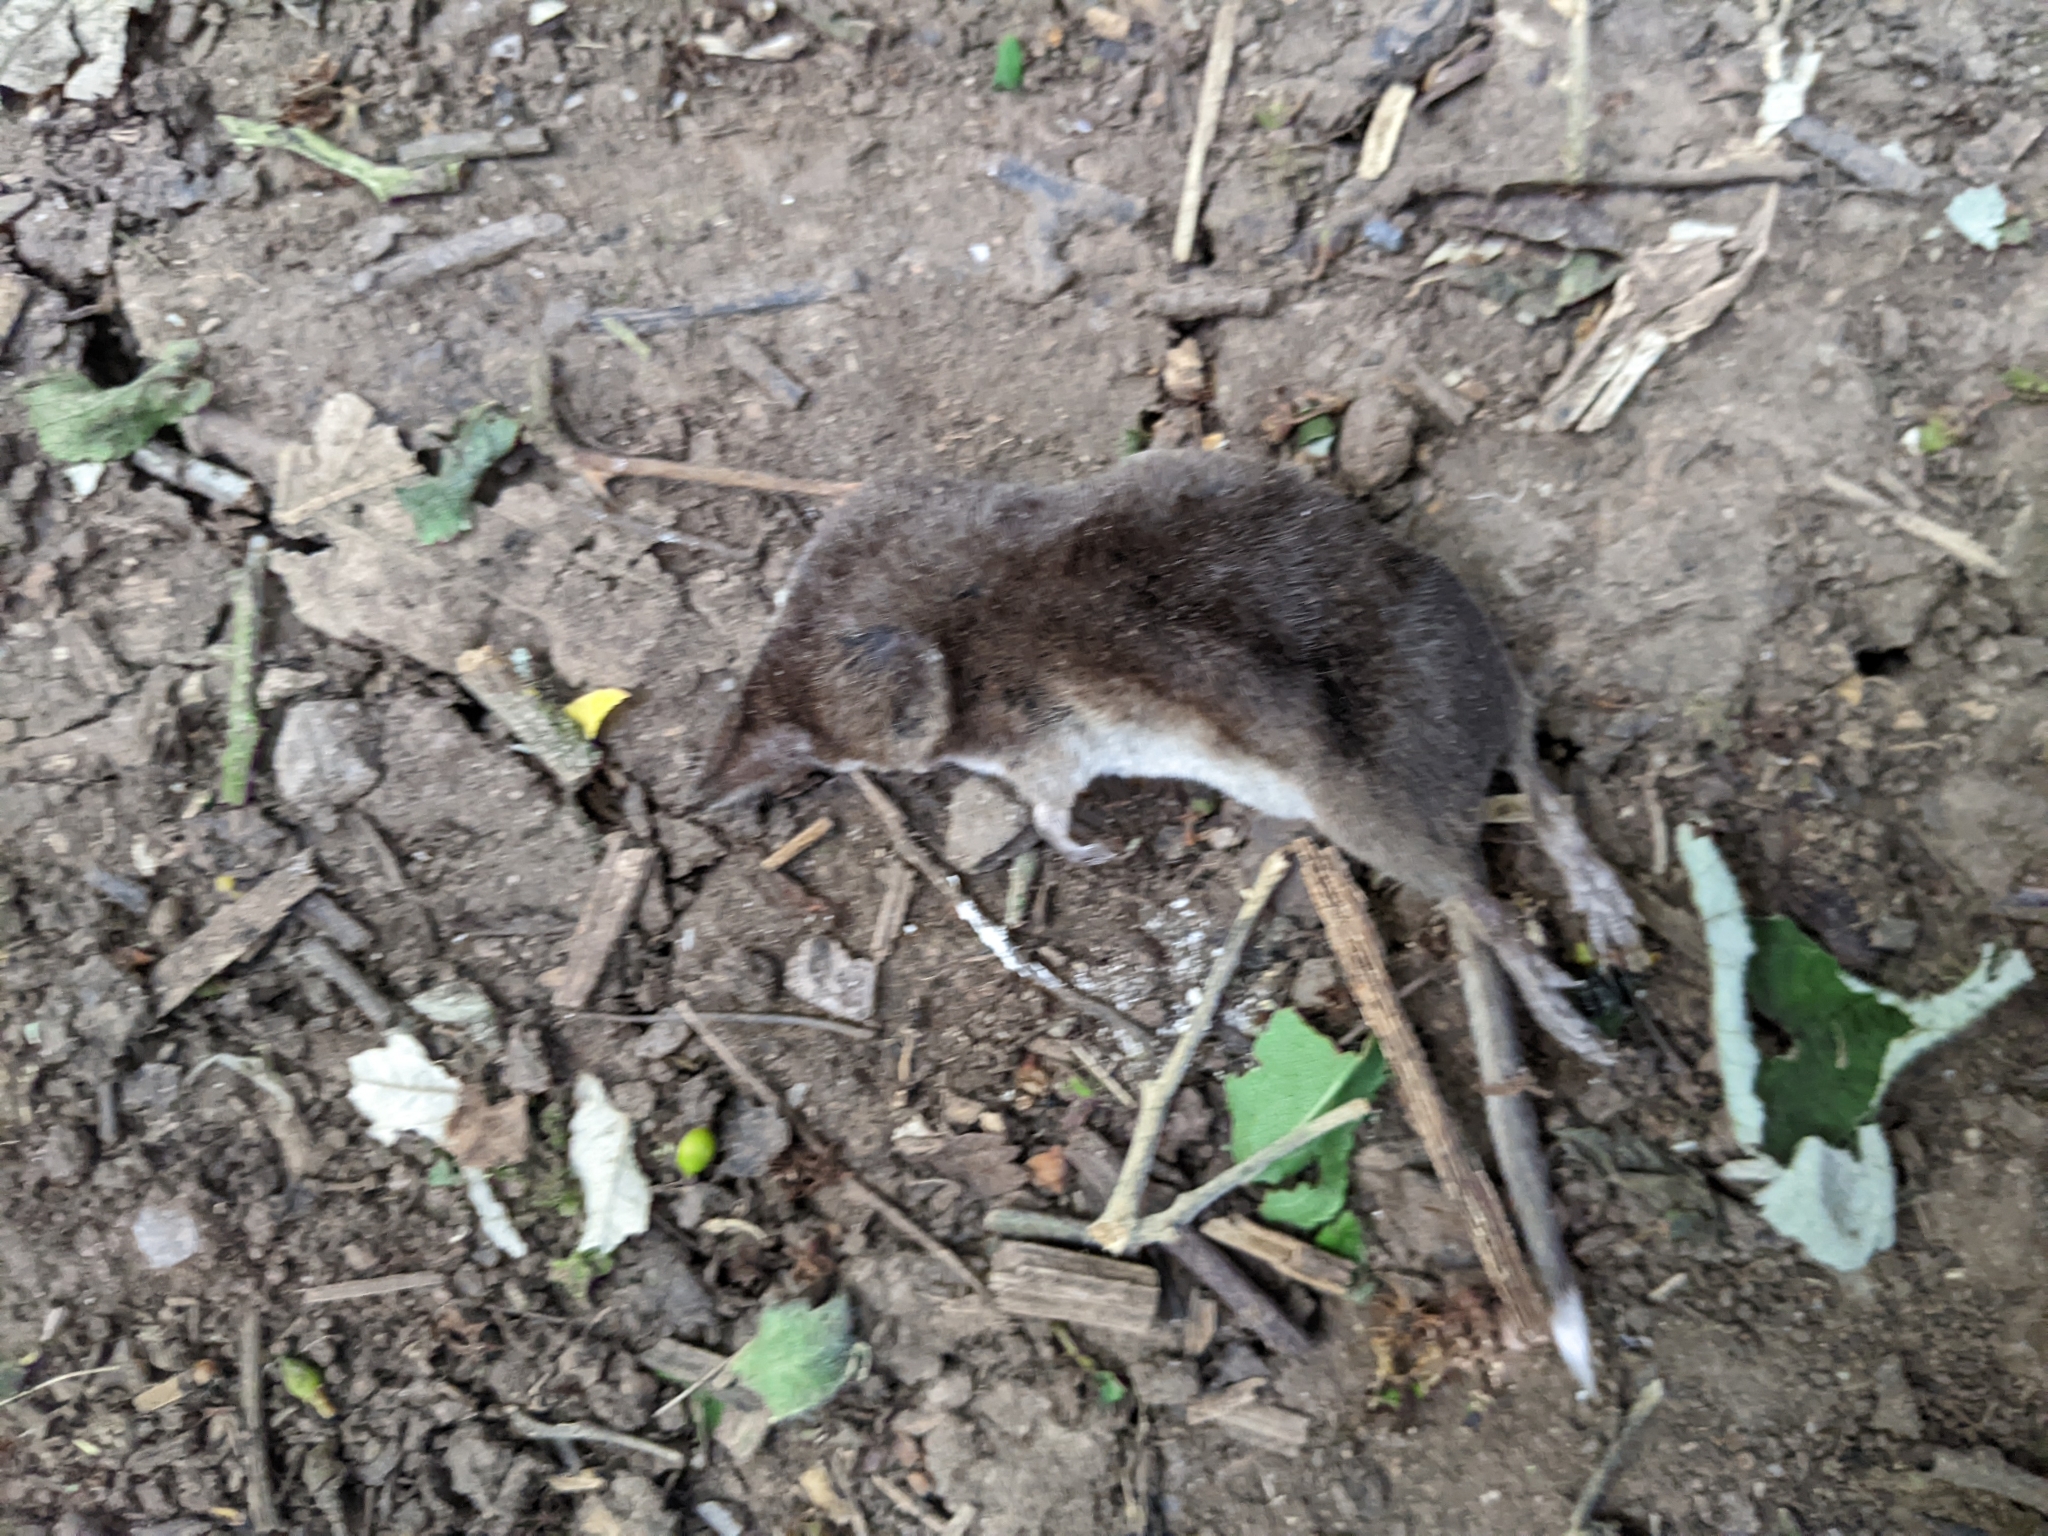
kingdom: Animalia
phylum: Chordata
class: Mammalia
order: Soricomorpha
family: Soricidae
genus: Sorex
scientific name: Sorex araneus
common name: Common shrew
